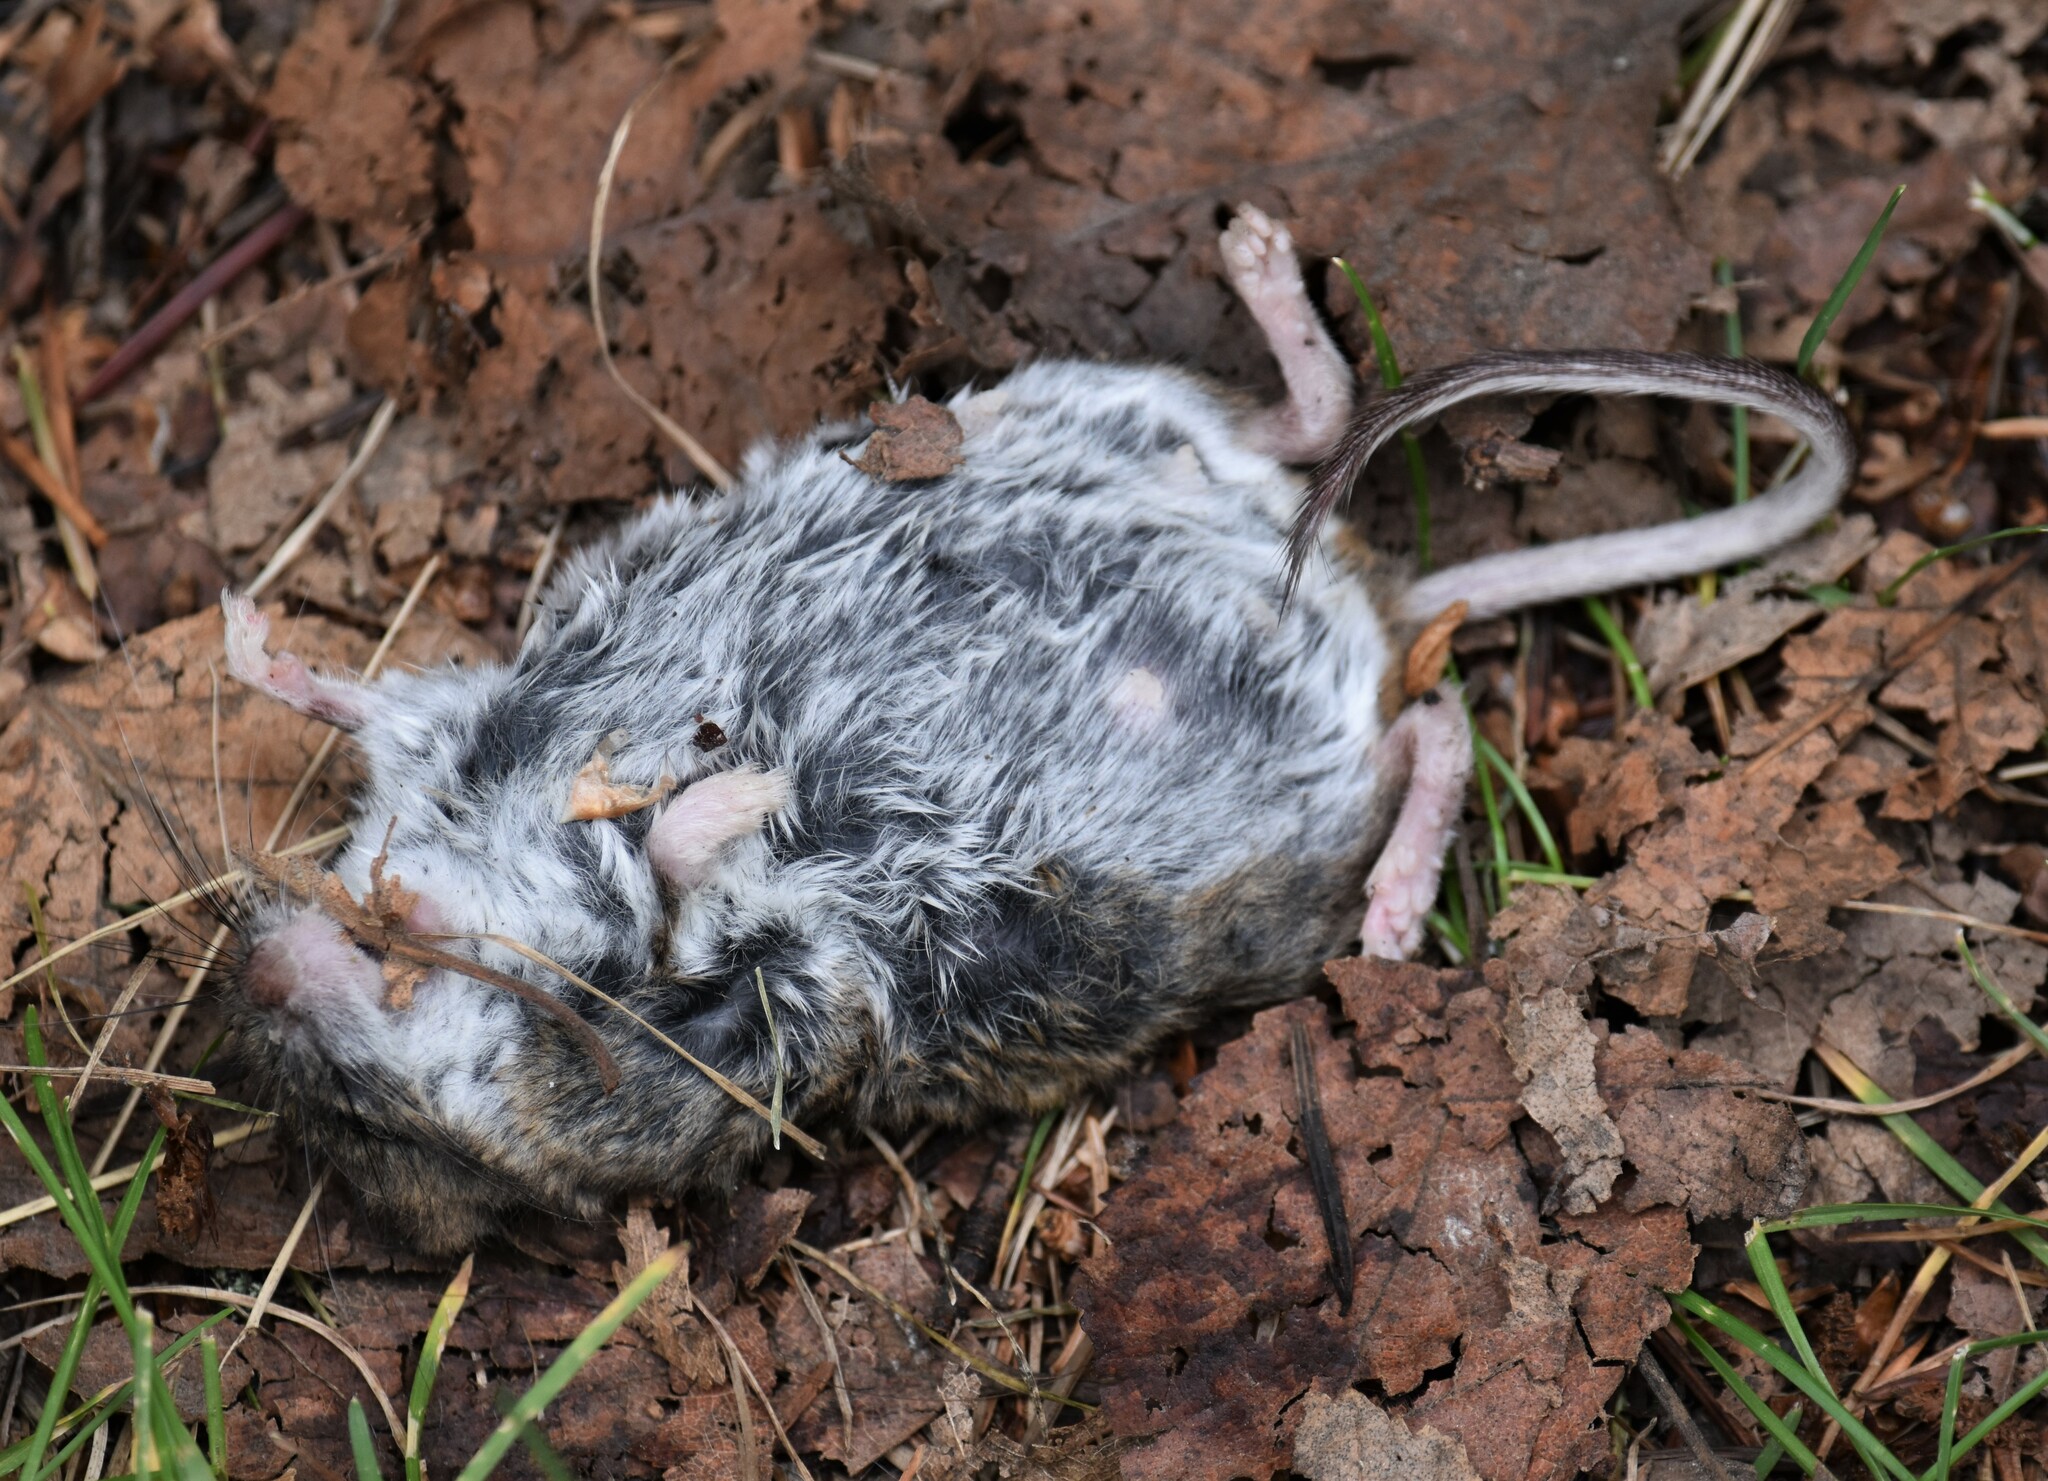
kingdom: Animalia
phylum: Chordata
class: Mammalia
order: Rodentia
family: Cricetidae
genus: Peromyscus
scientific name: Peromyscus maniculatus
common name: Deer mouse
